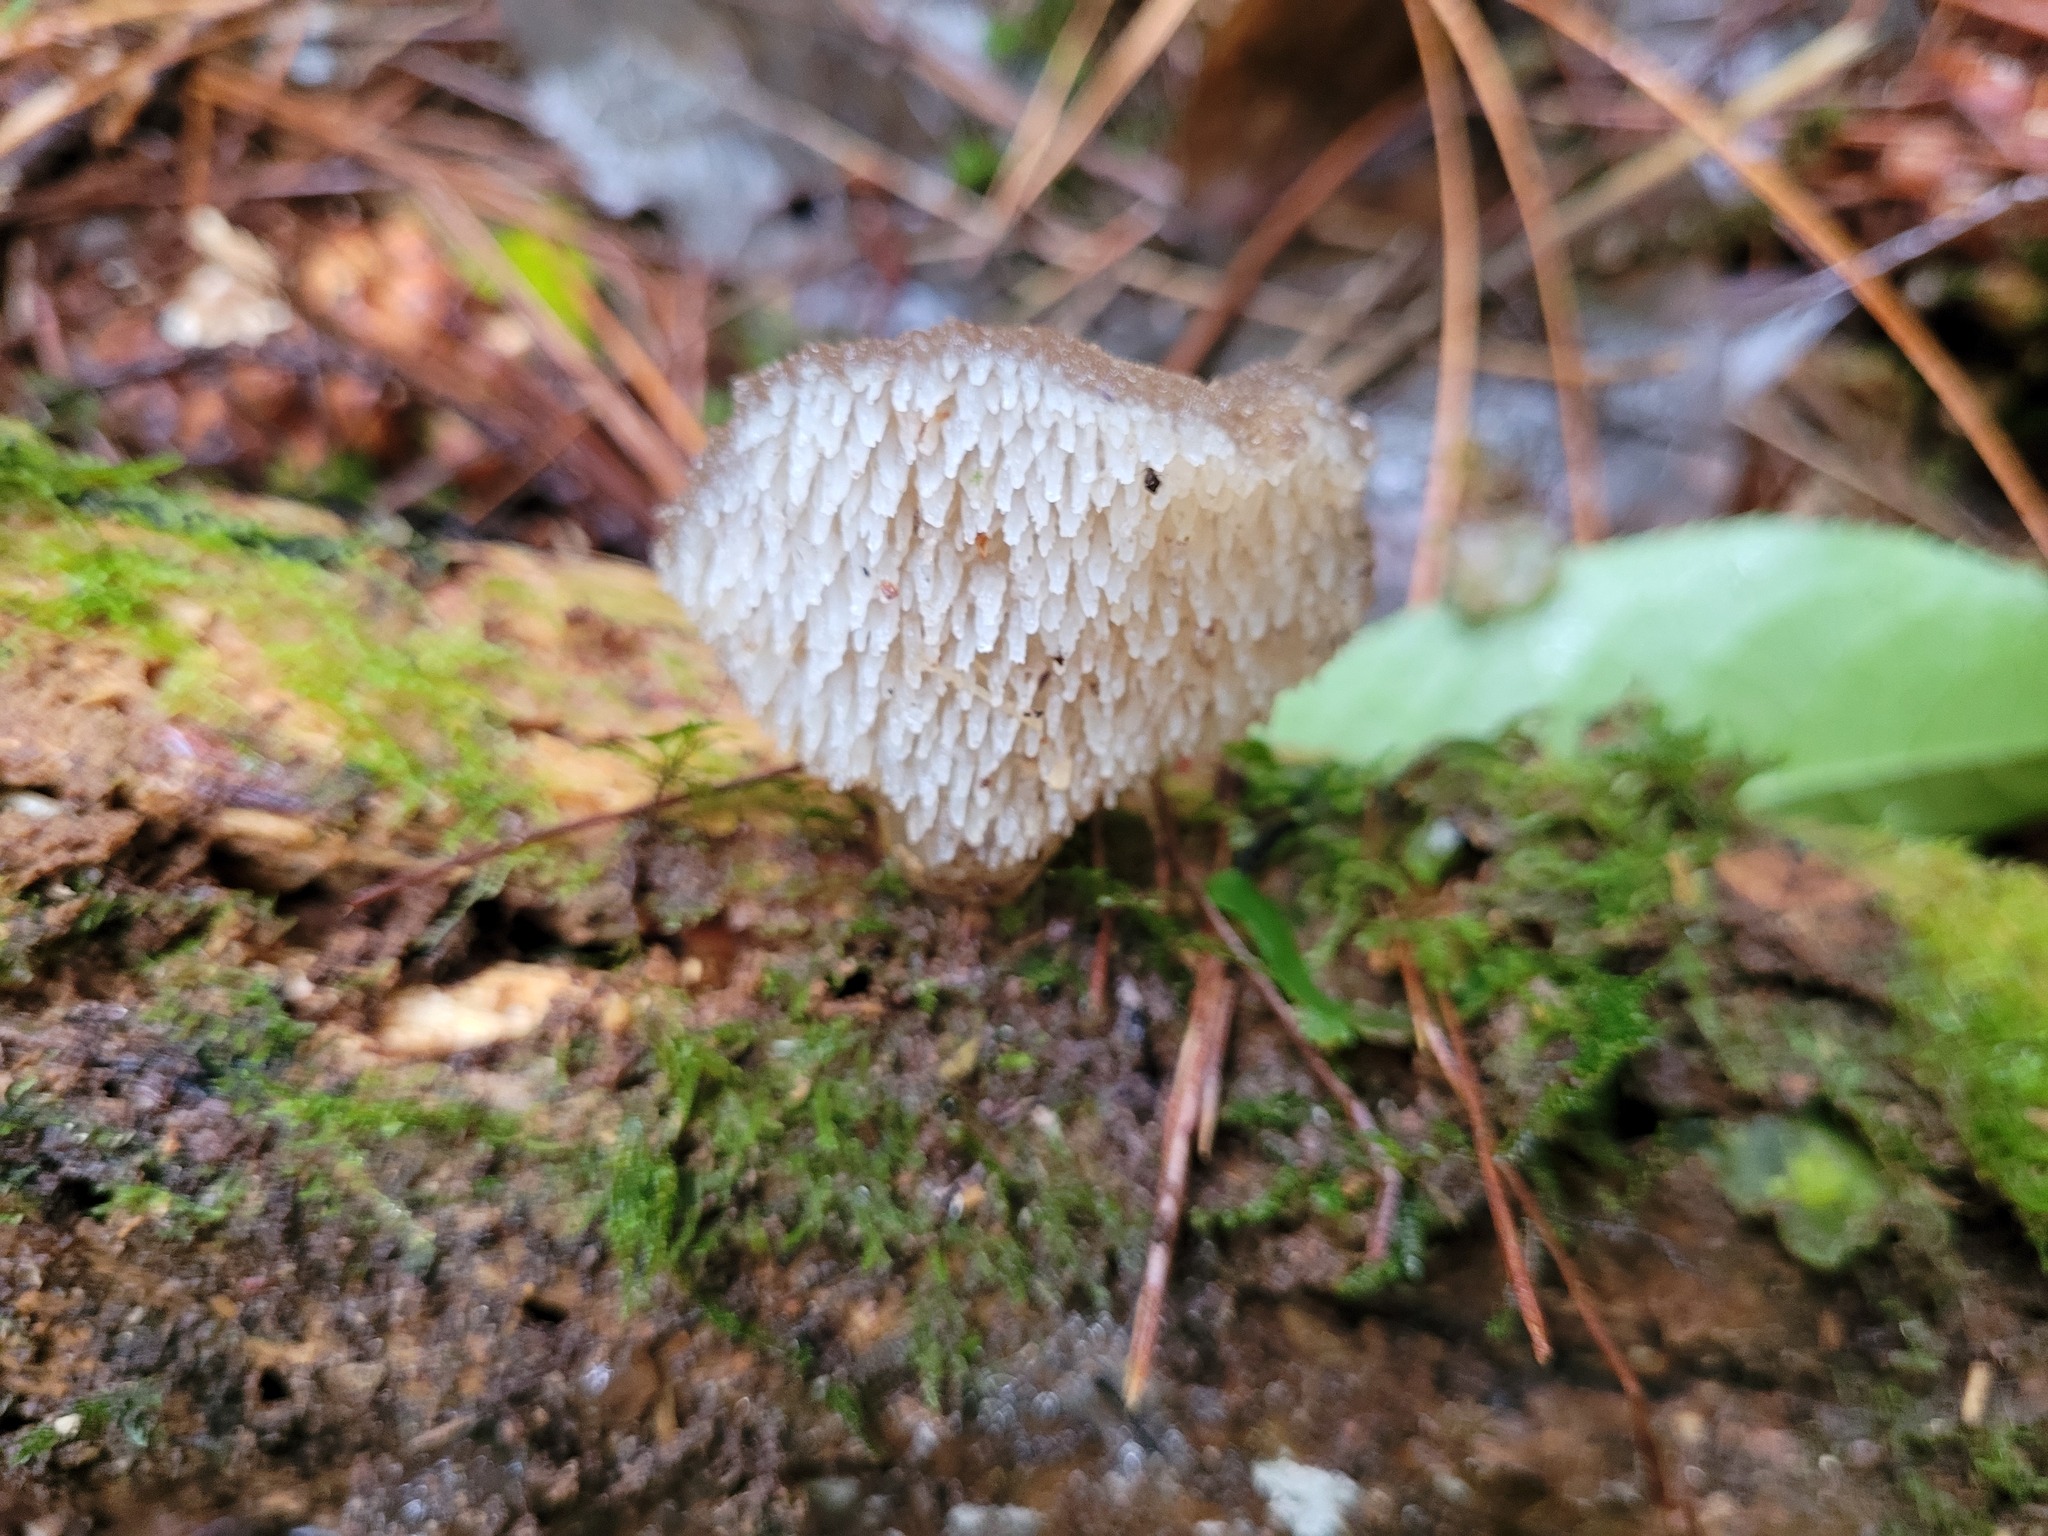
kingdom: Fungi
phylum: Basidiomycota
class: Agaricomycetes
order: Auriculariales
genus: Pseudohydnum
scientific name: Pseudohydnum orbiculare
